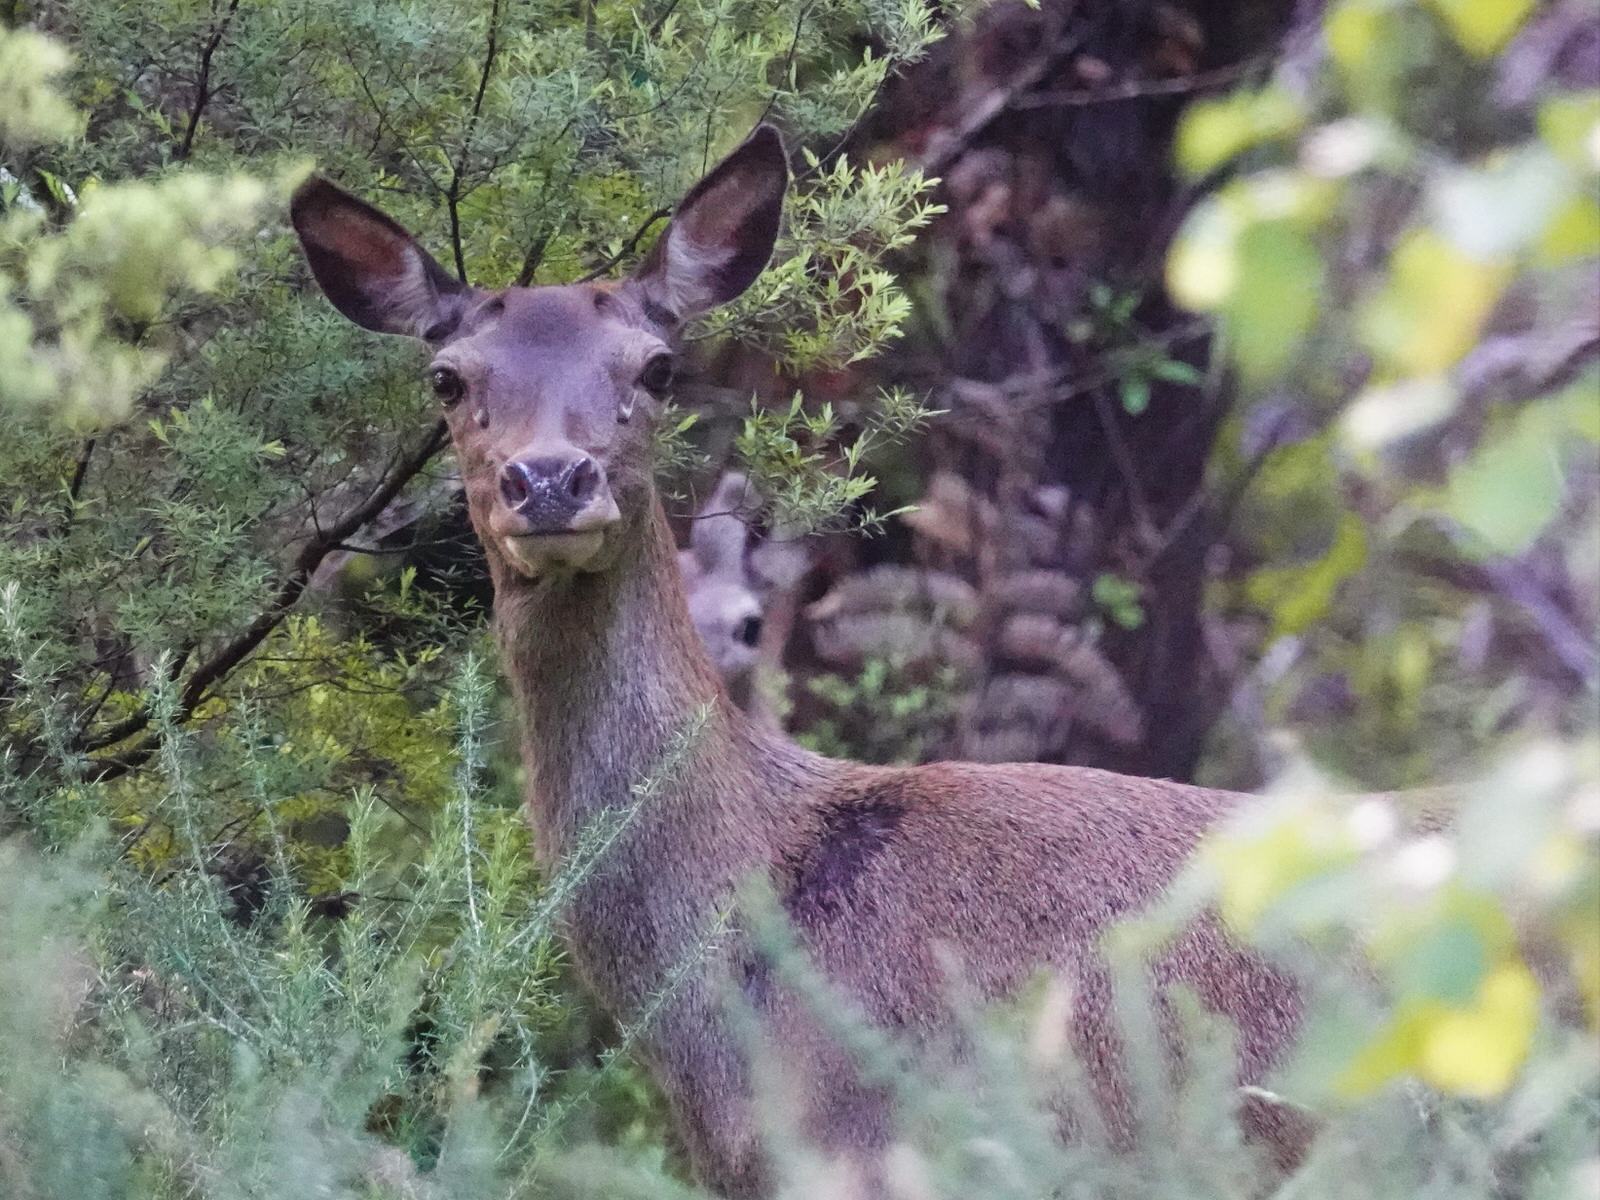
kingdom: Animalia
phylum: Chordata
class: Mammalia
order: Artiodactyla
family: Cervidae
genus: Cervus
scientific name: Cervus elaphus
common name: Red deer
